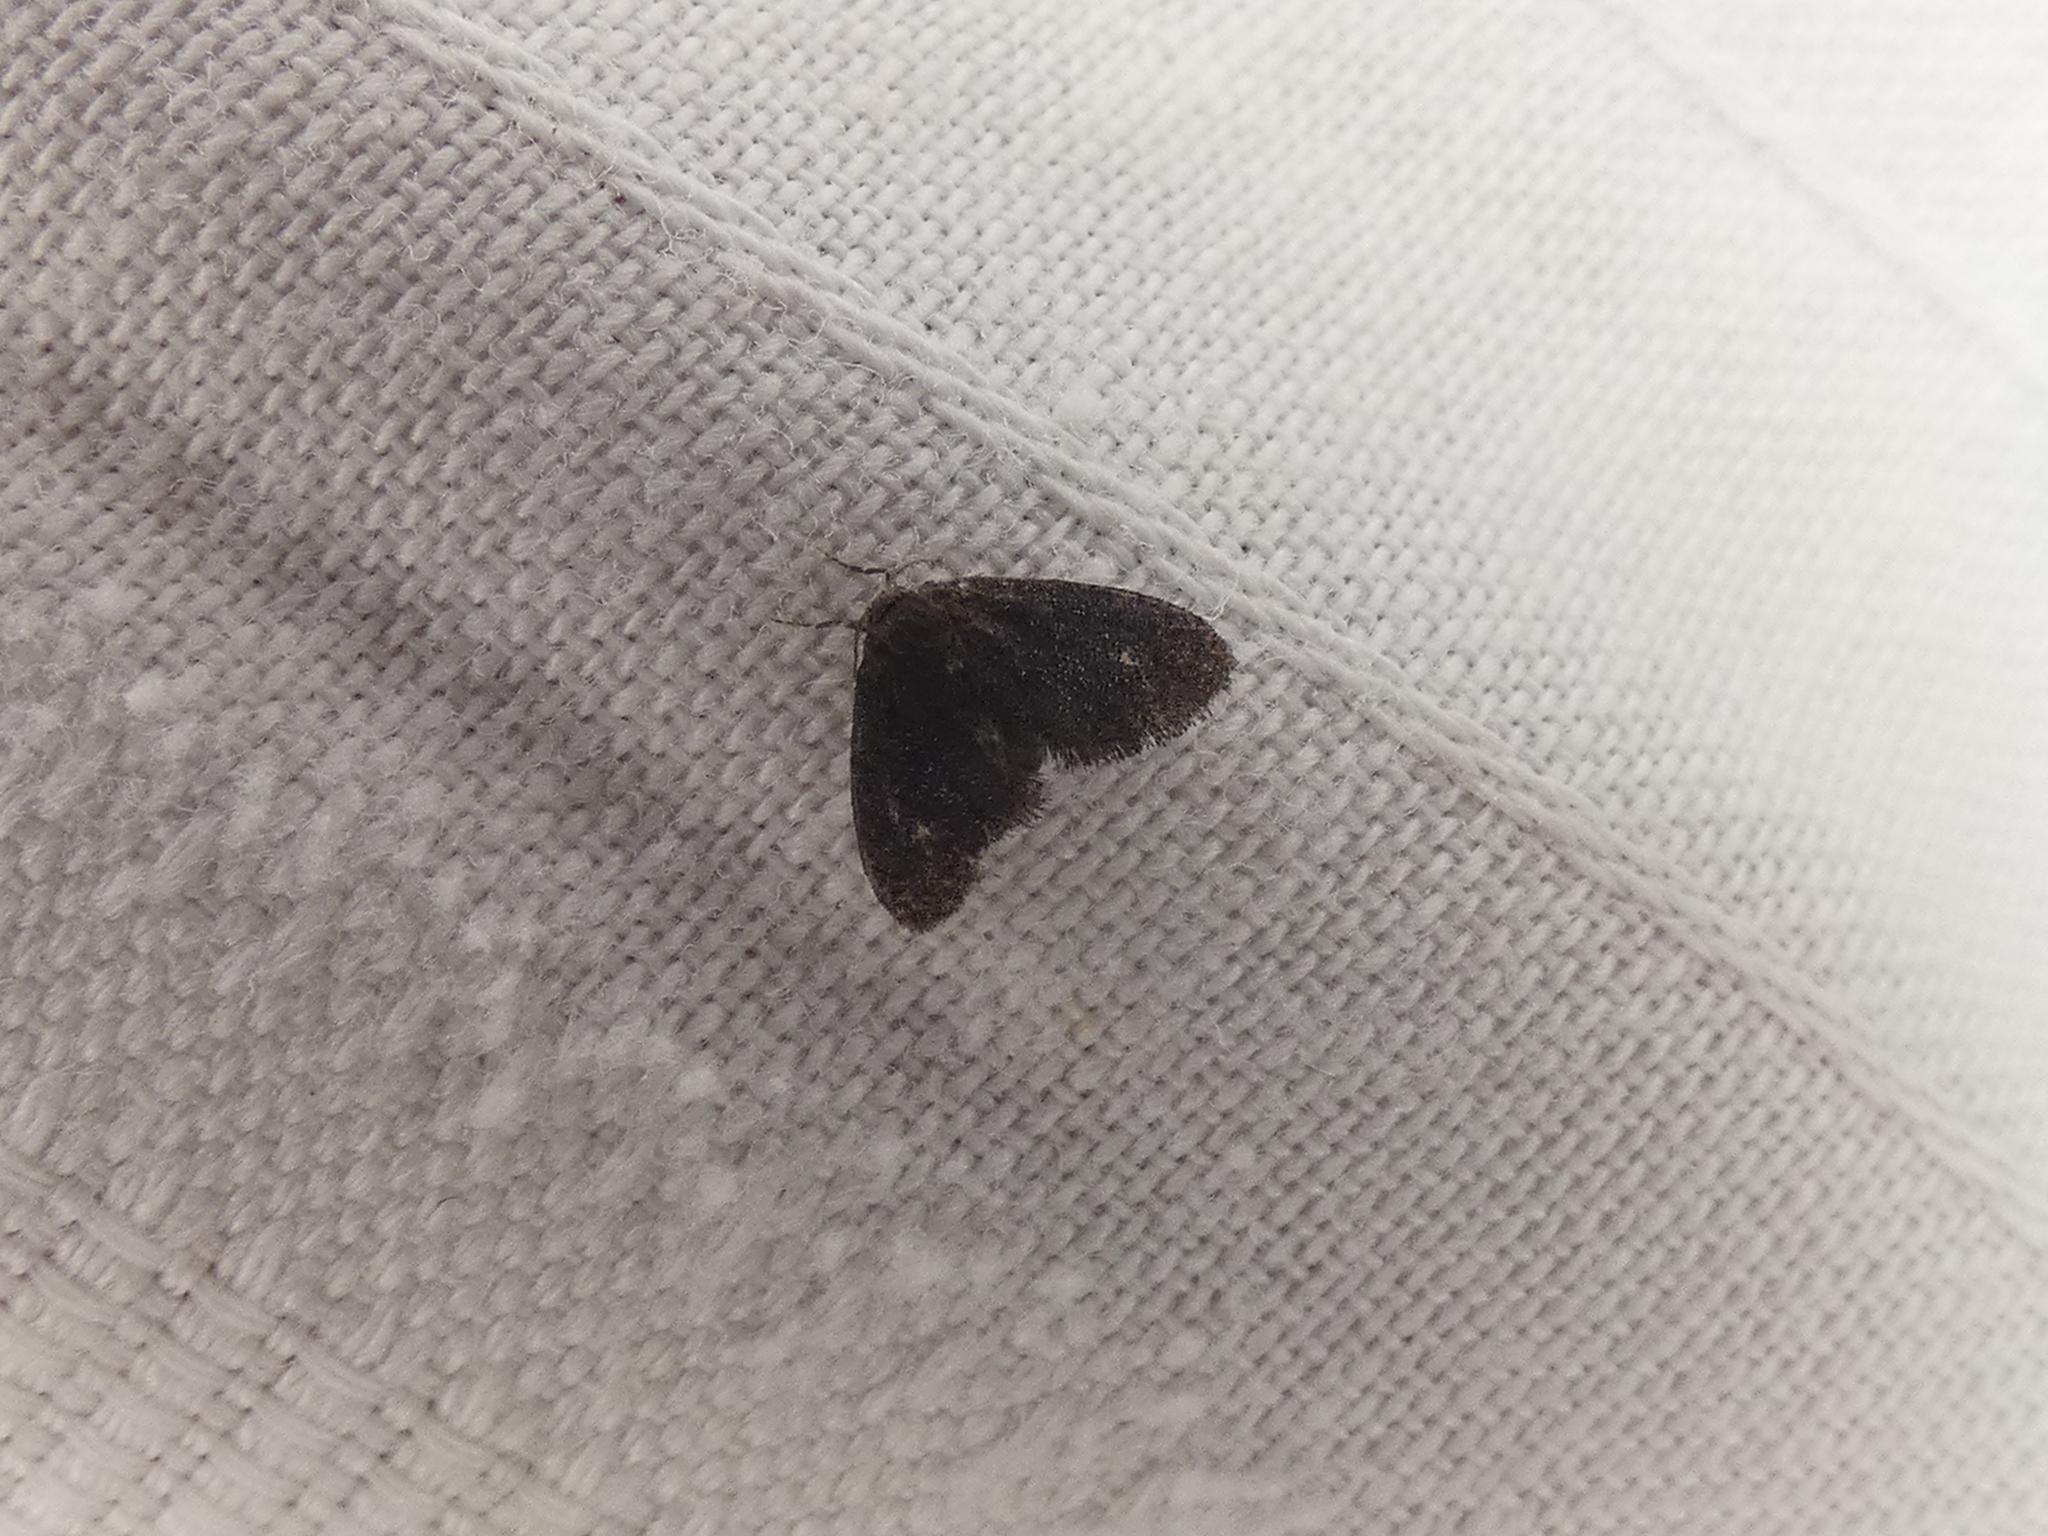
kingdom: Animalia
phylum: Arthropoda
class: Insecta
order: Lepidoptera
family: Epipyropidae
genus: Fulgoraecia
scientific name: Fulgoraecia exigua
